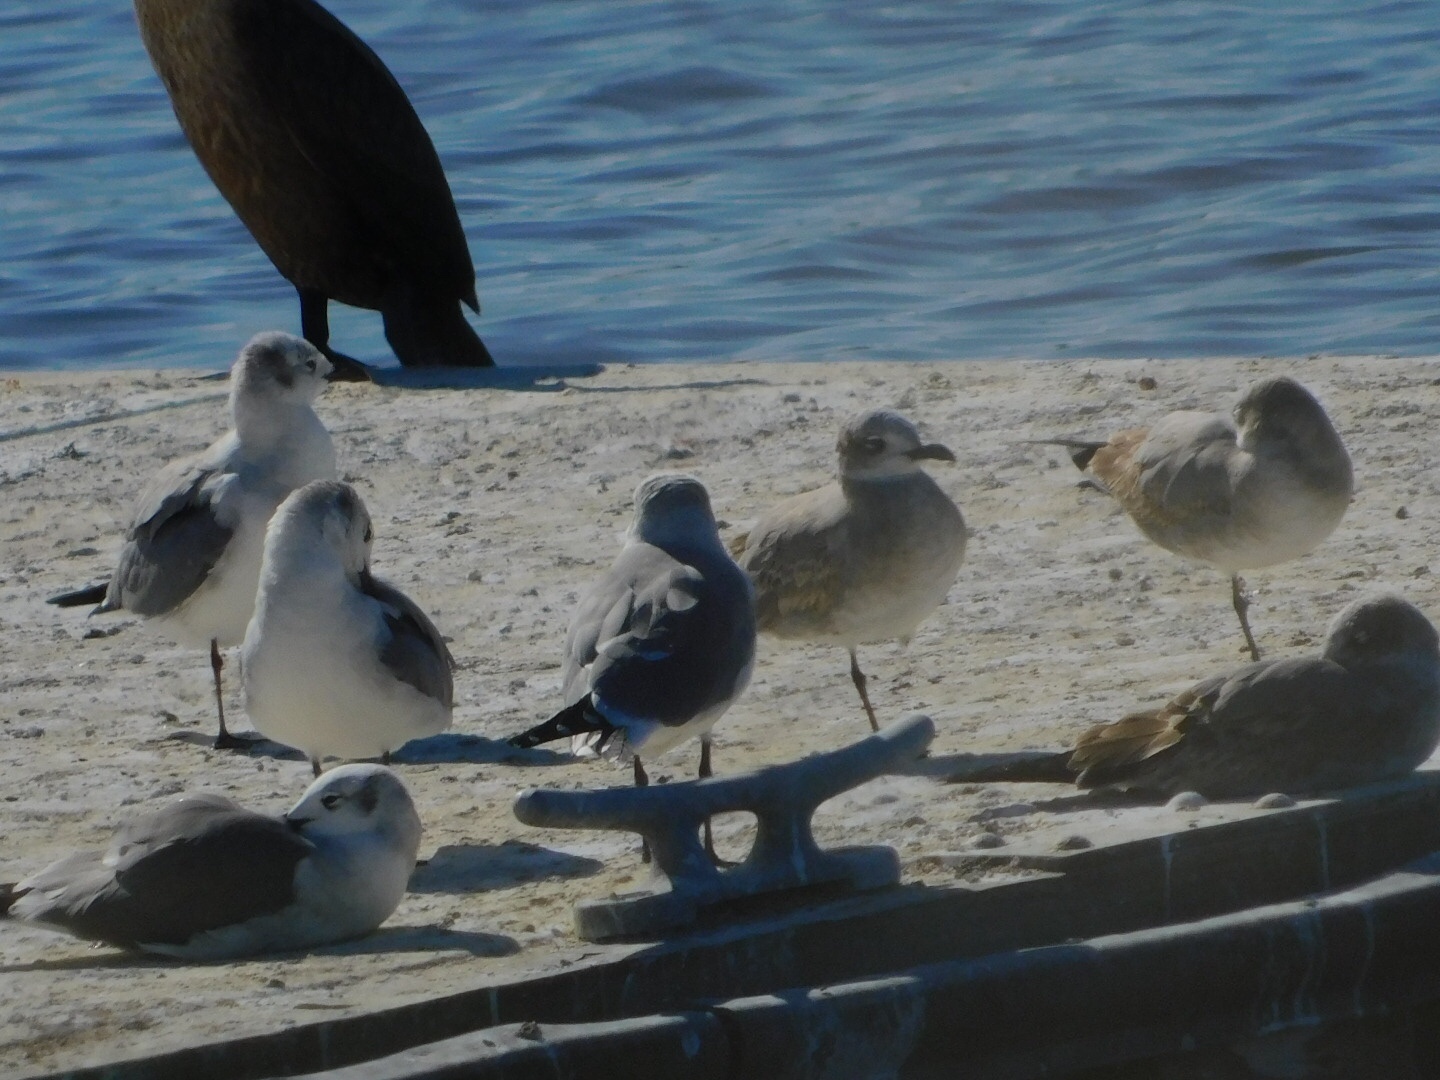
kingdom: Animalia
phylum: Chordata
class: Aves
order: Charadriiformes
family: Laridae
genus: Leucophaeus
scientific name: Leucophaeus atricilla
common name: Laughing gull
